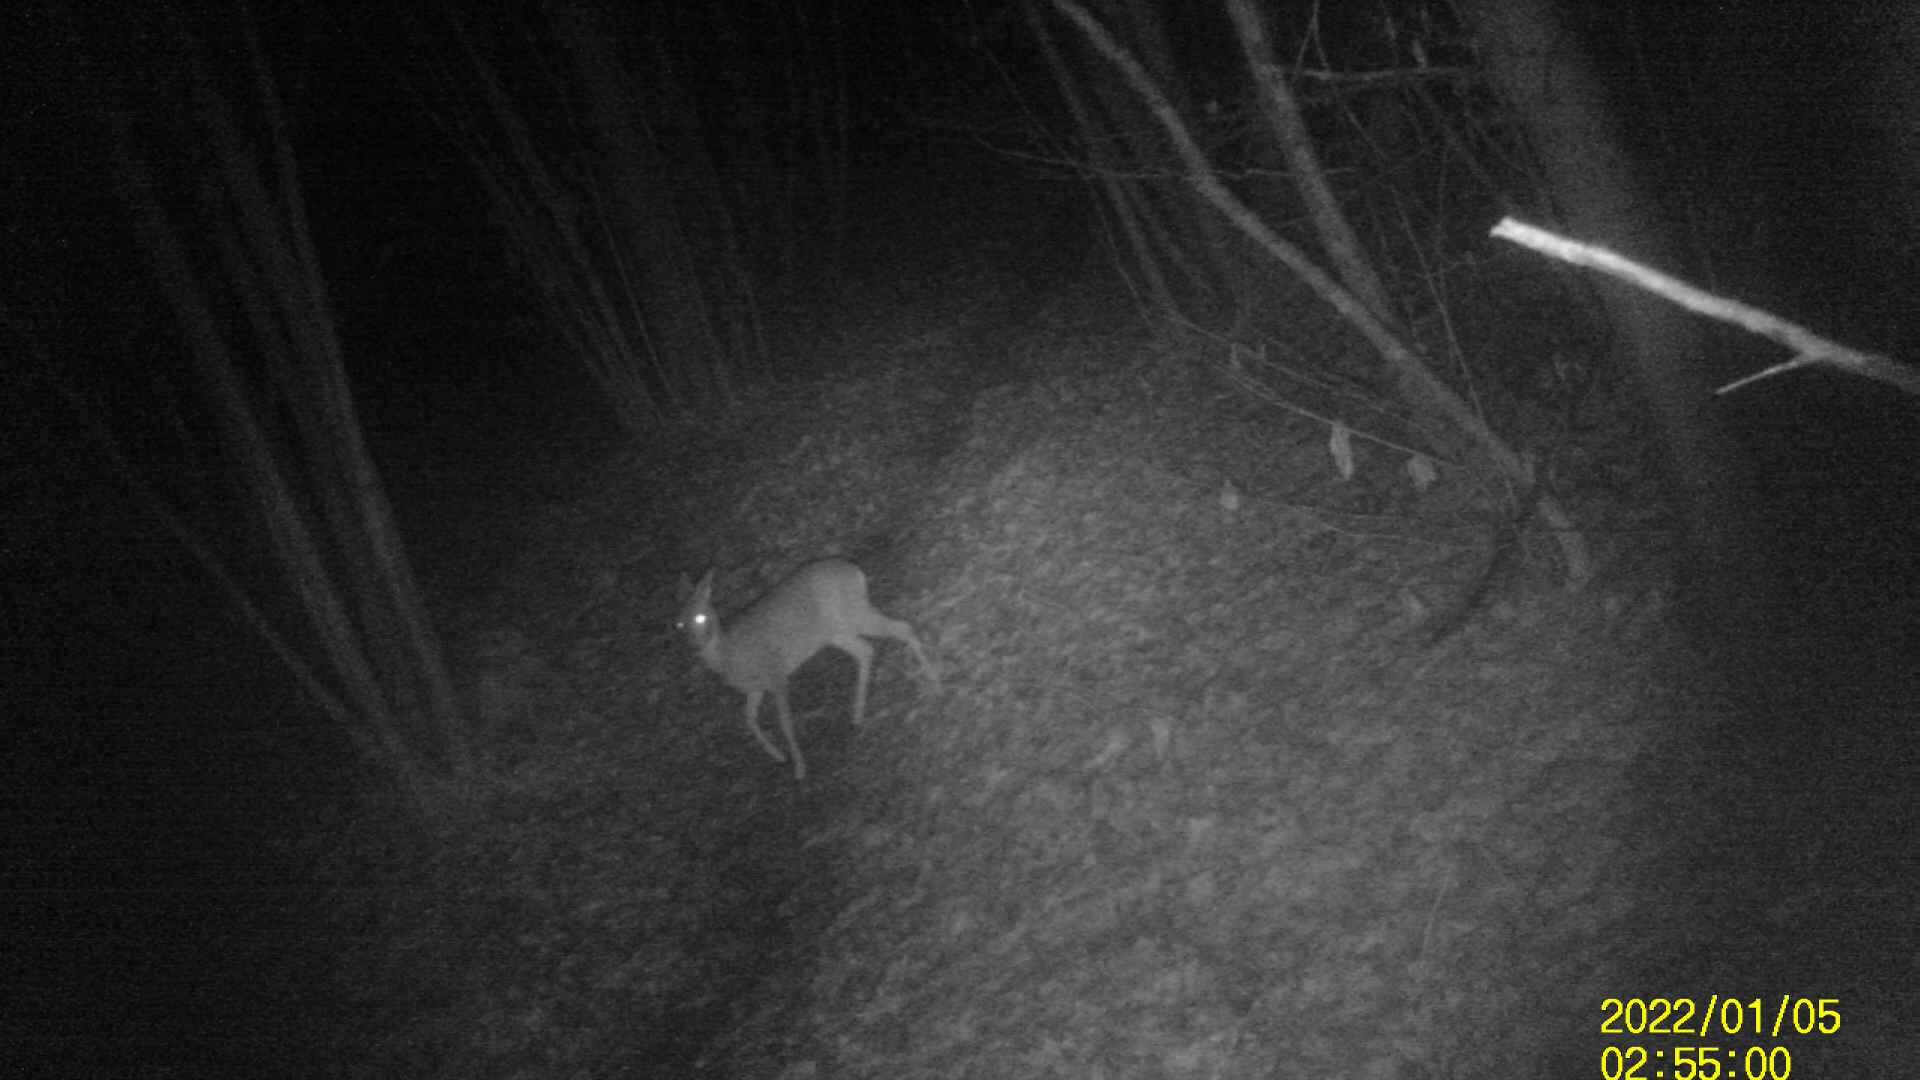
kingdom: Animalia
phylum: Chordata
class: Mammalia
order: Artiodactyla
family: Cervidae
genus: Capreolus
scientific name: Capreolus capreolus
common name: Western roe deer
